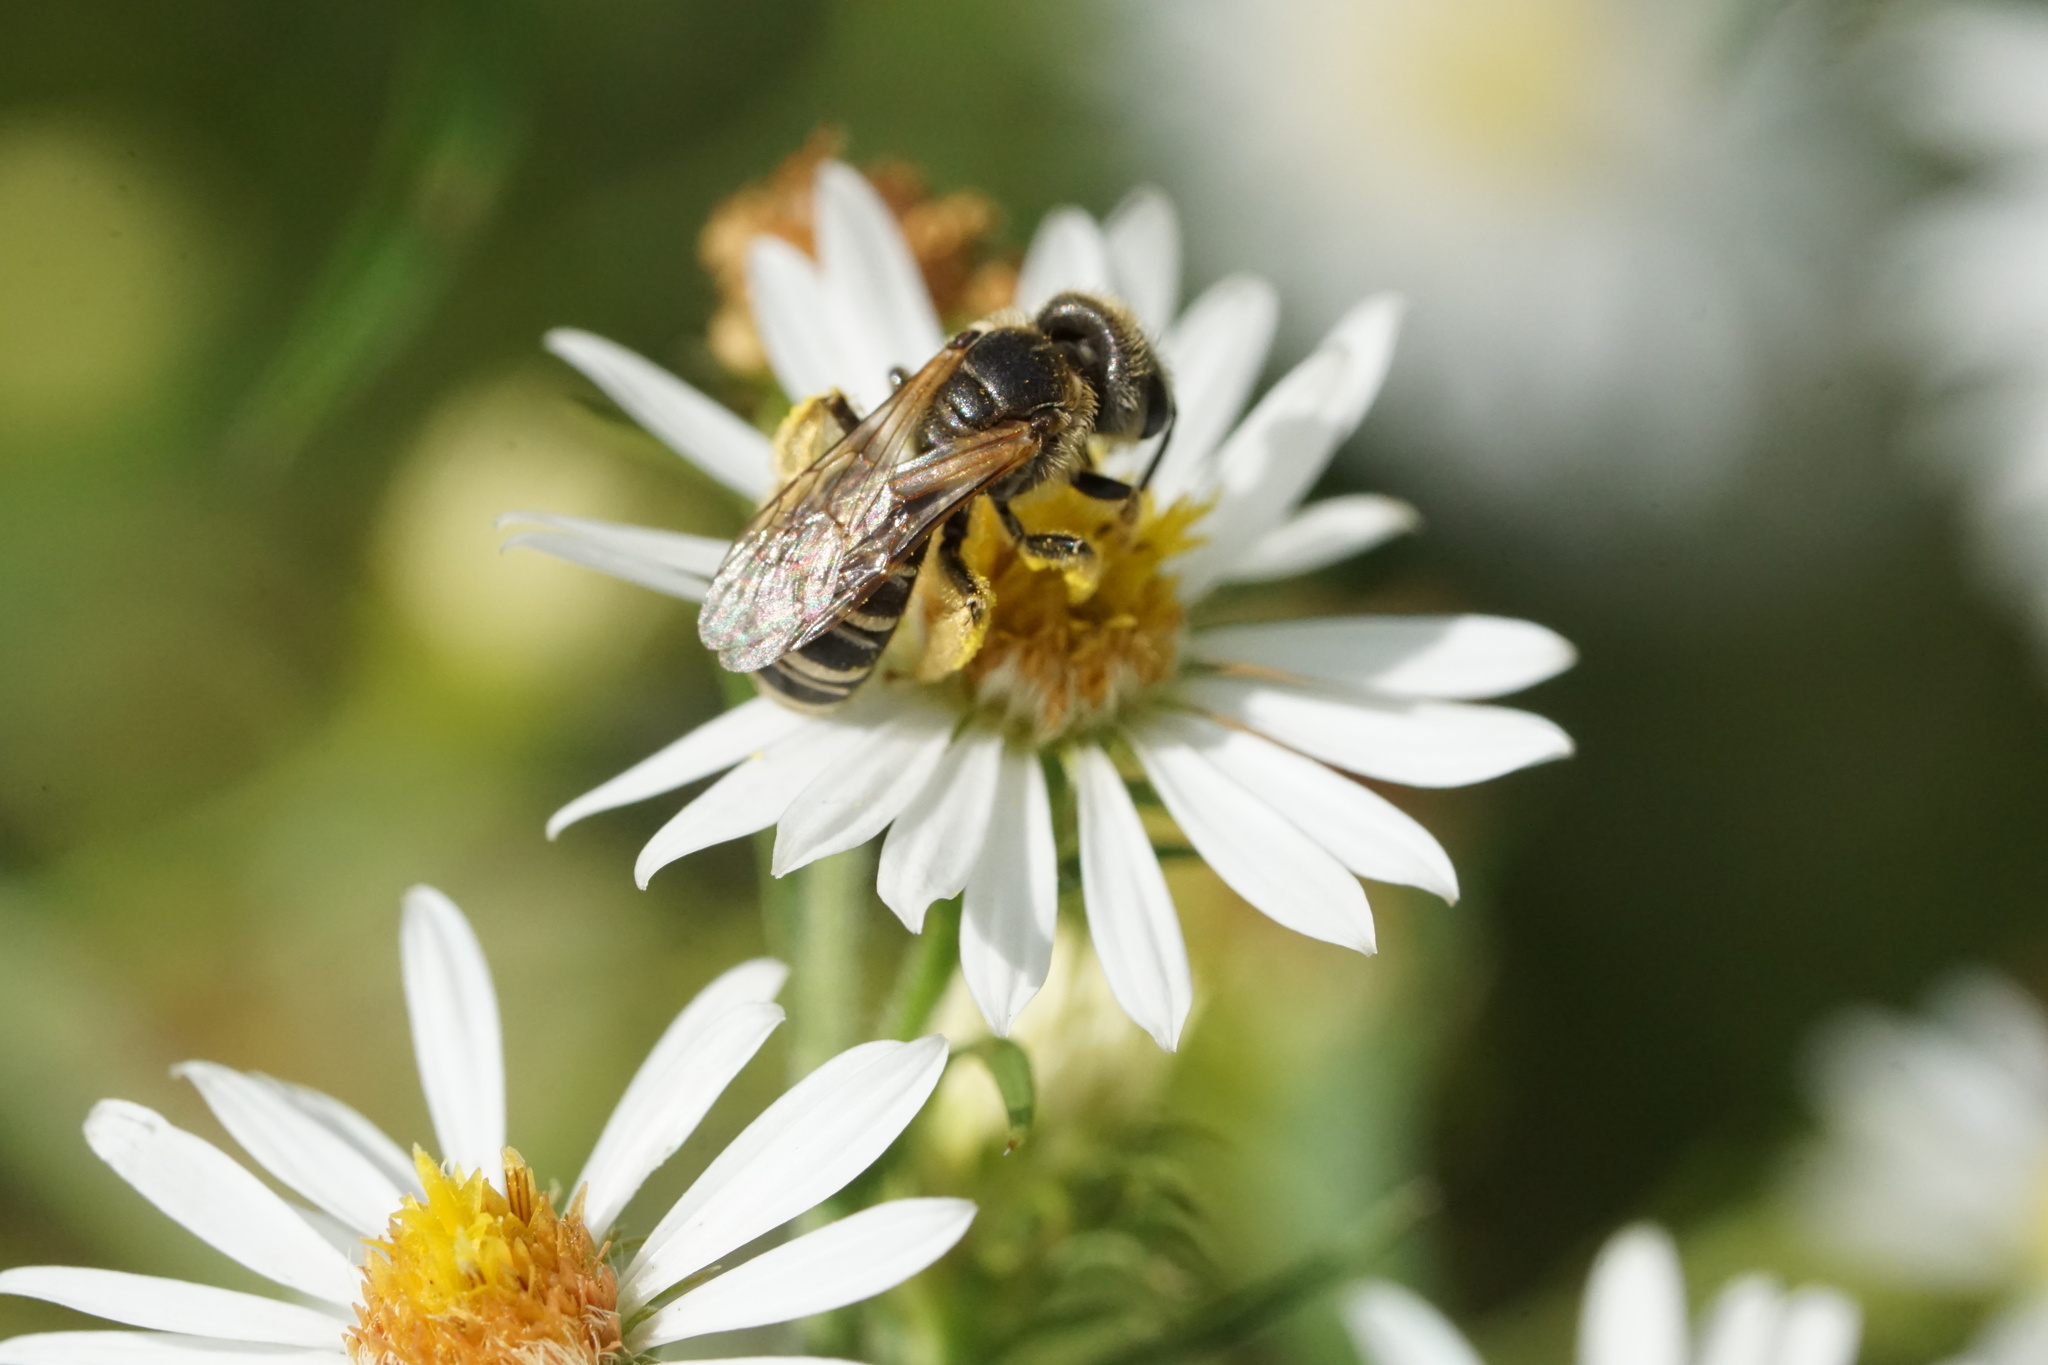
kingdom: Animalia
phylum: Arthropoda
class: Insecta
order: Hymenoptera
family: Halictidae
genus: Halictus
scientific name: Halictus ligatus
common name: Ligated furrow bee
